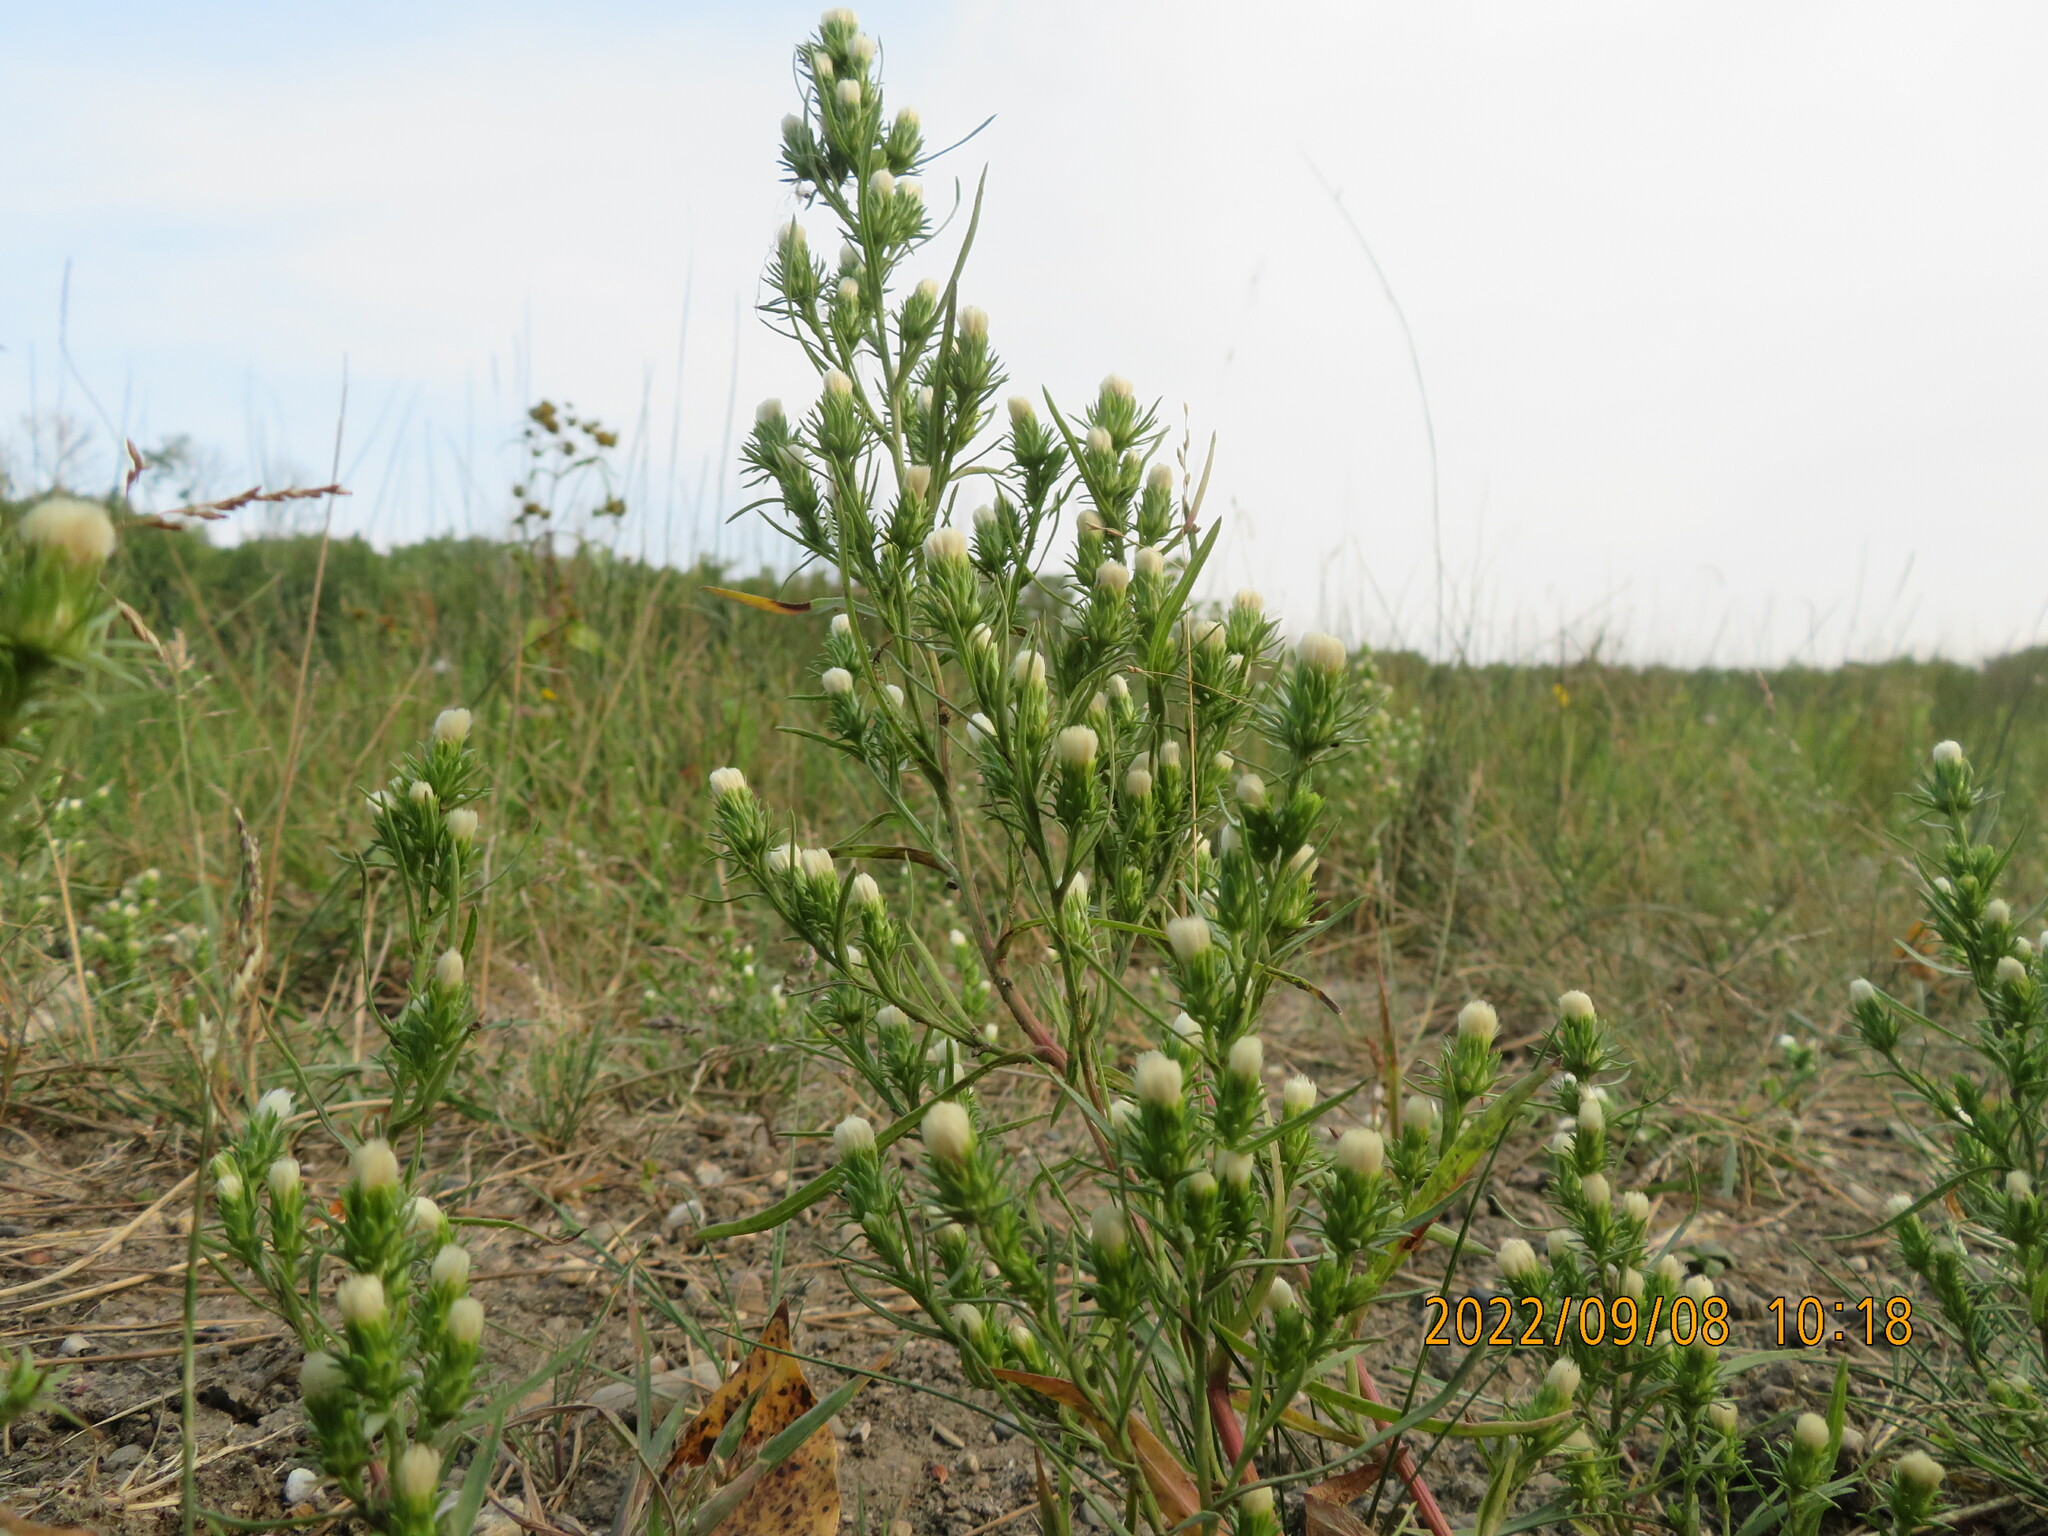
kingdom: Plantae
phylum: Tracheophyta
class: Magnoliopsida
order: Asterales
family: Asteraceae
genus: Symphyotrichum
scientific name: Symphyotrichum ciliatum
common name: Rayless annual aster
